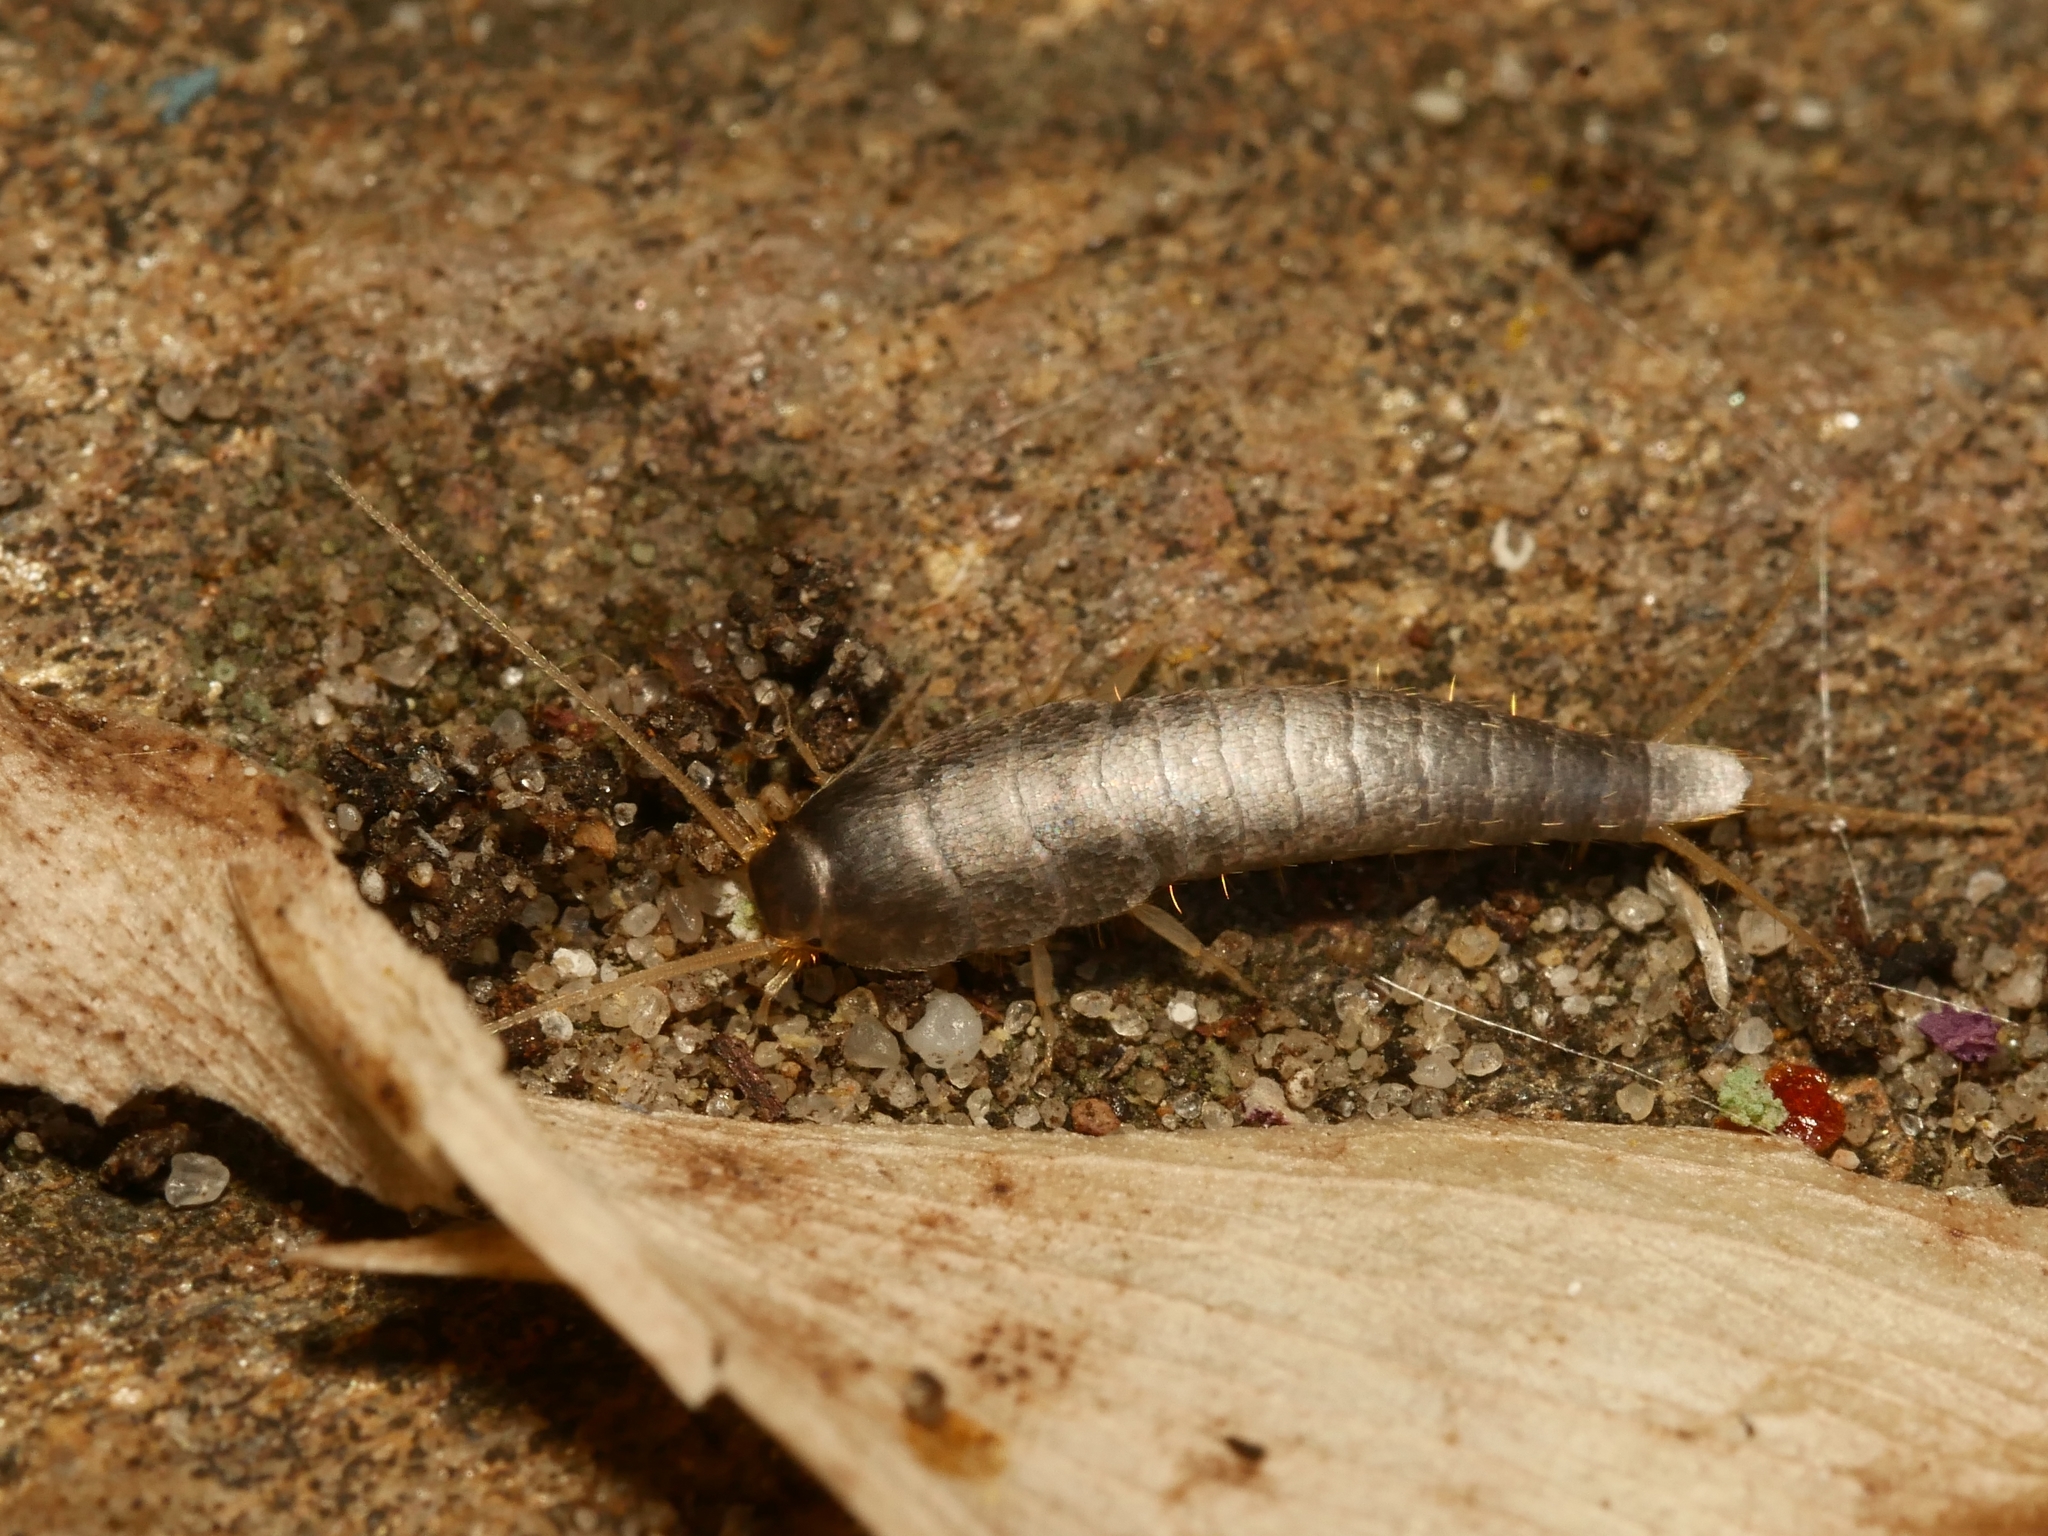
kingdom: Animalia
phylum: Arthropoda
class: Insecta
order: Zygentoma
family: Lepismatidae
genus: Lepisma
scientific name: Lepisma saccharinum
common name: Silverfish
